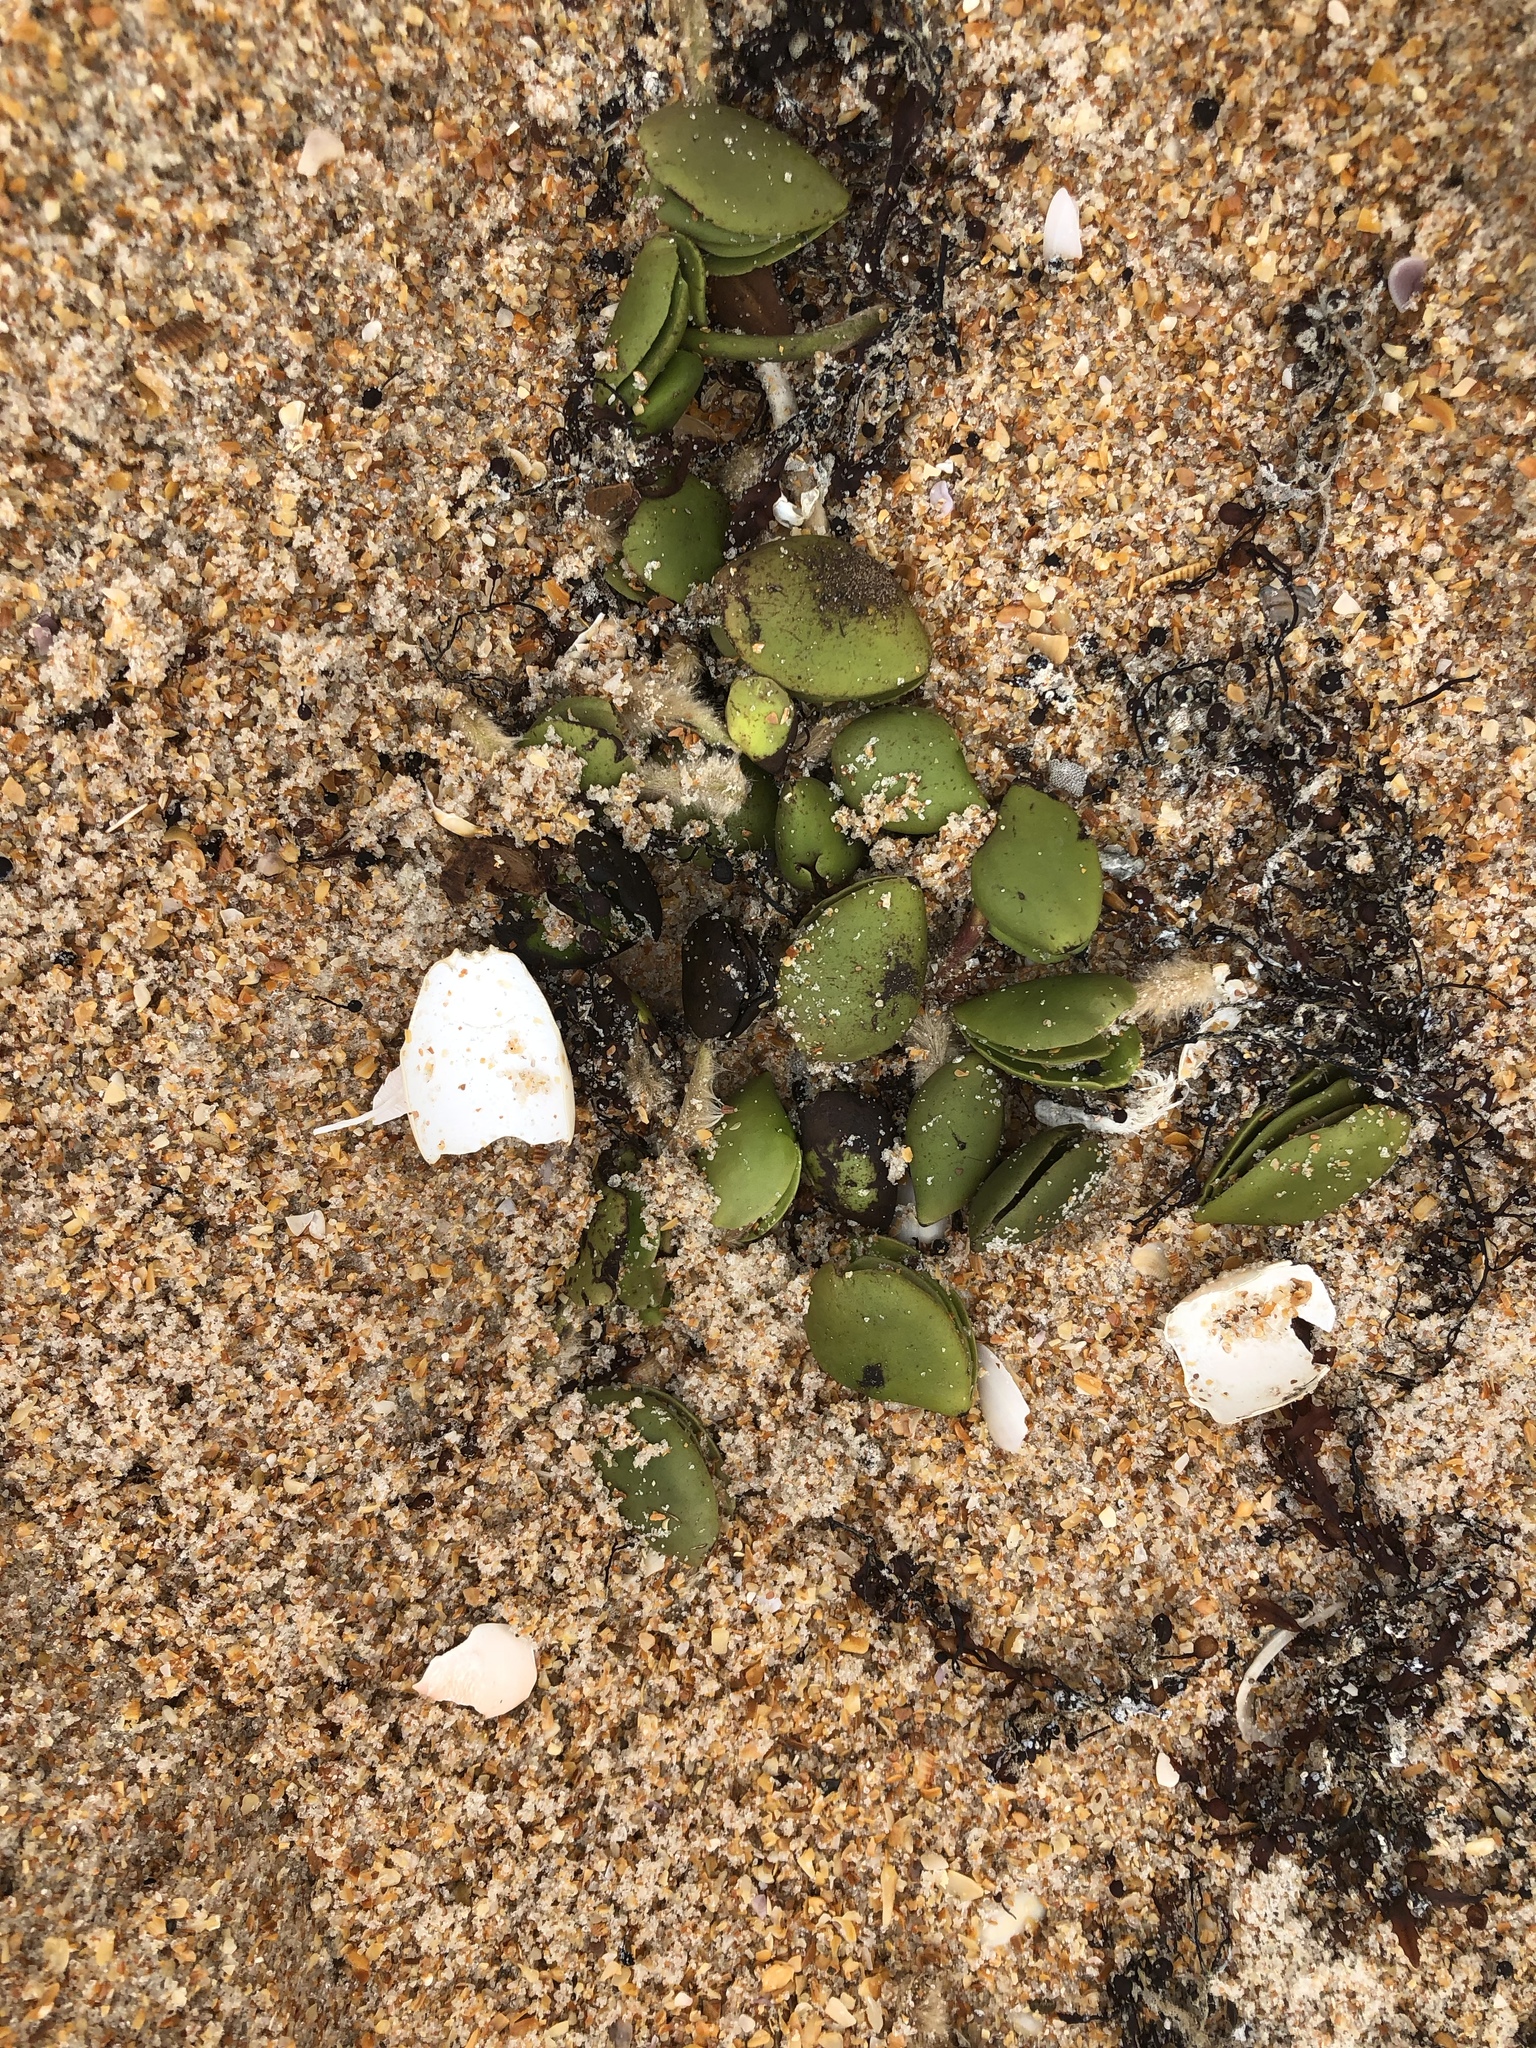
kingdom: Plantae
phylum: Tracheophyta
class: Magnoliopsida
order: Lamiales
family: Acanthaceae
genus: Avicennia
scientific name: Avicennia germinans
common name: Black mangrove
